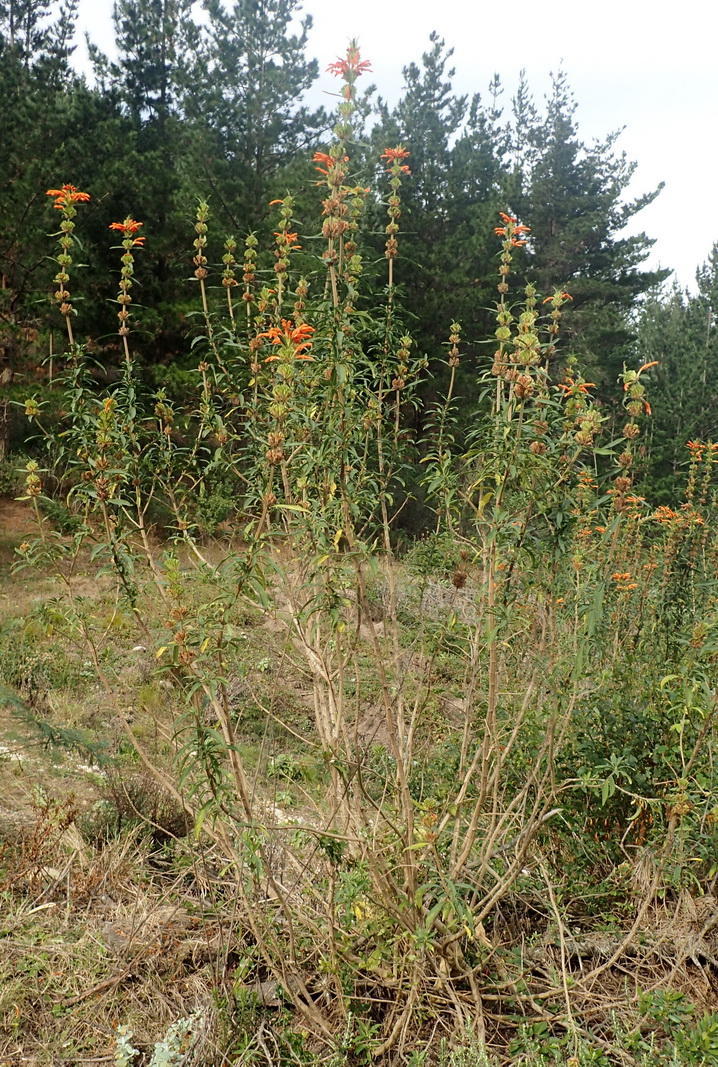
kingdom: Plantae
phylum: Tracheophyta
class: Magnoliopsida
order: Lamiales
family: Lamiaceae
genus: Leonotis
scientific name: Leonotis leonurus
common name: Lion's ear
